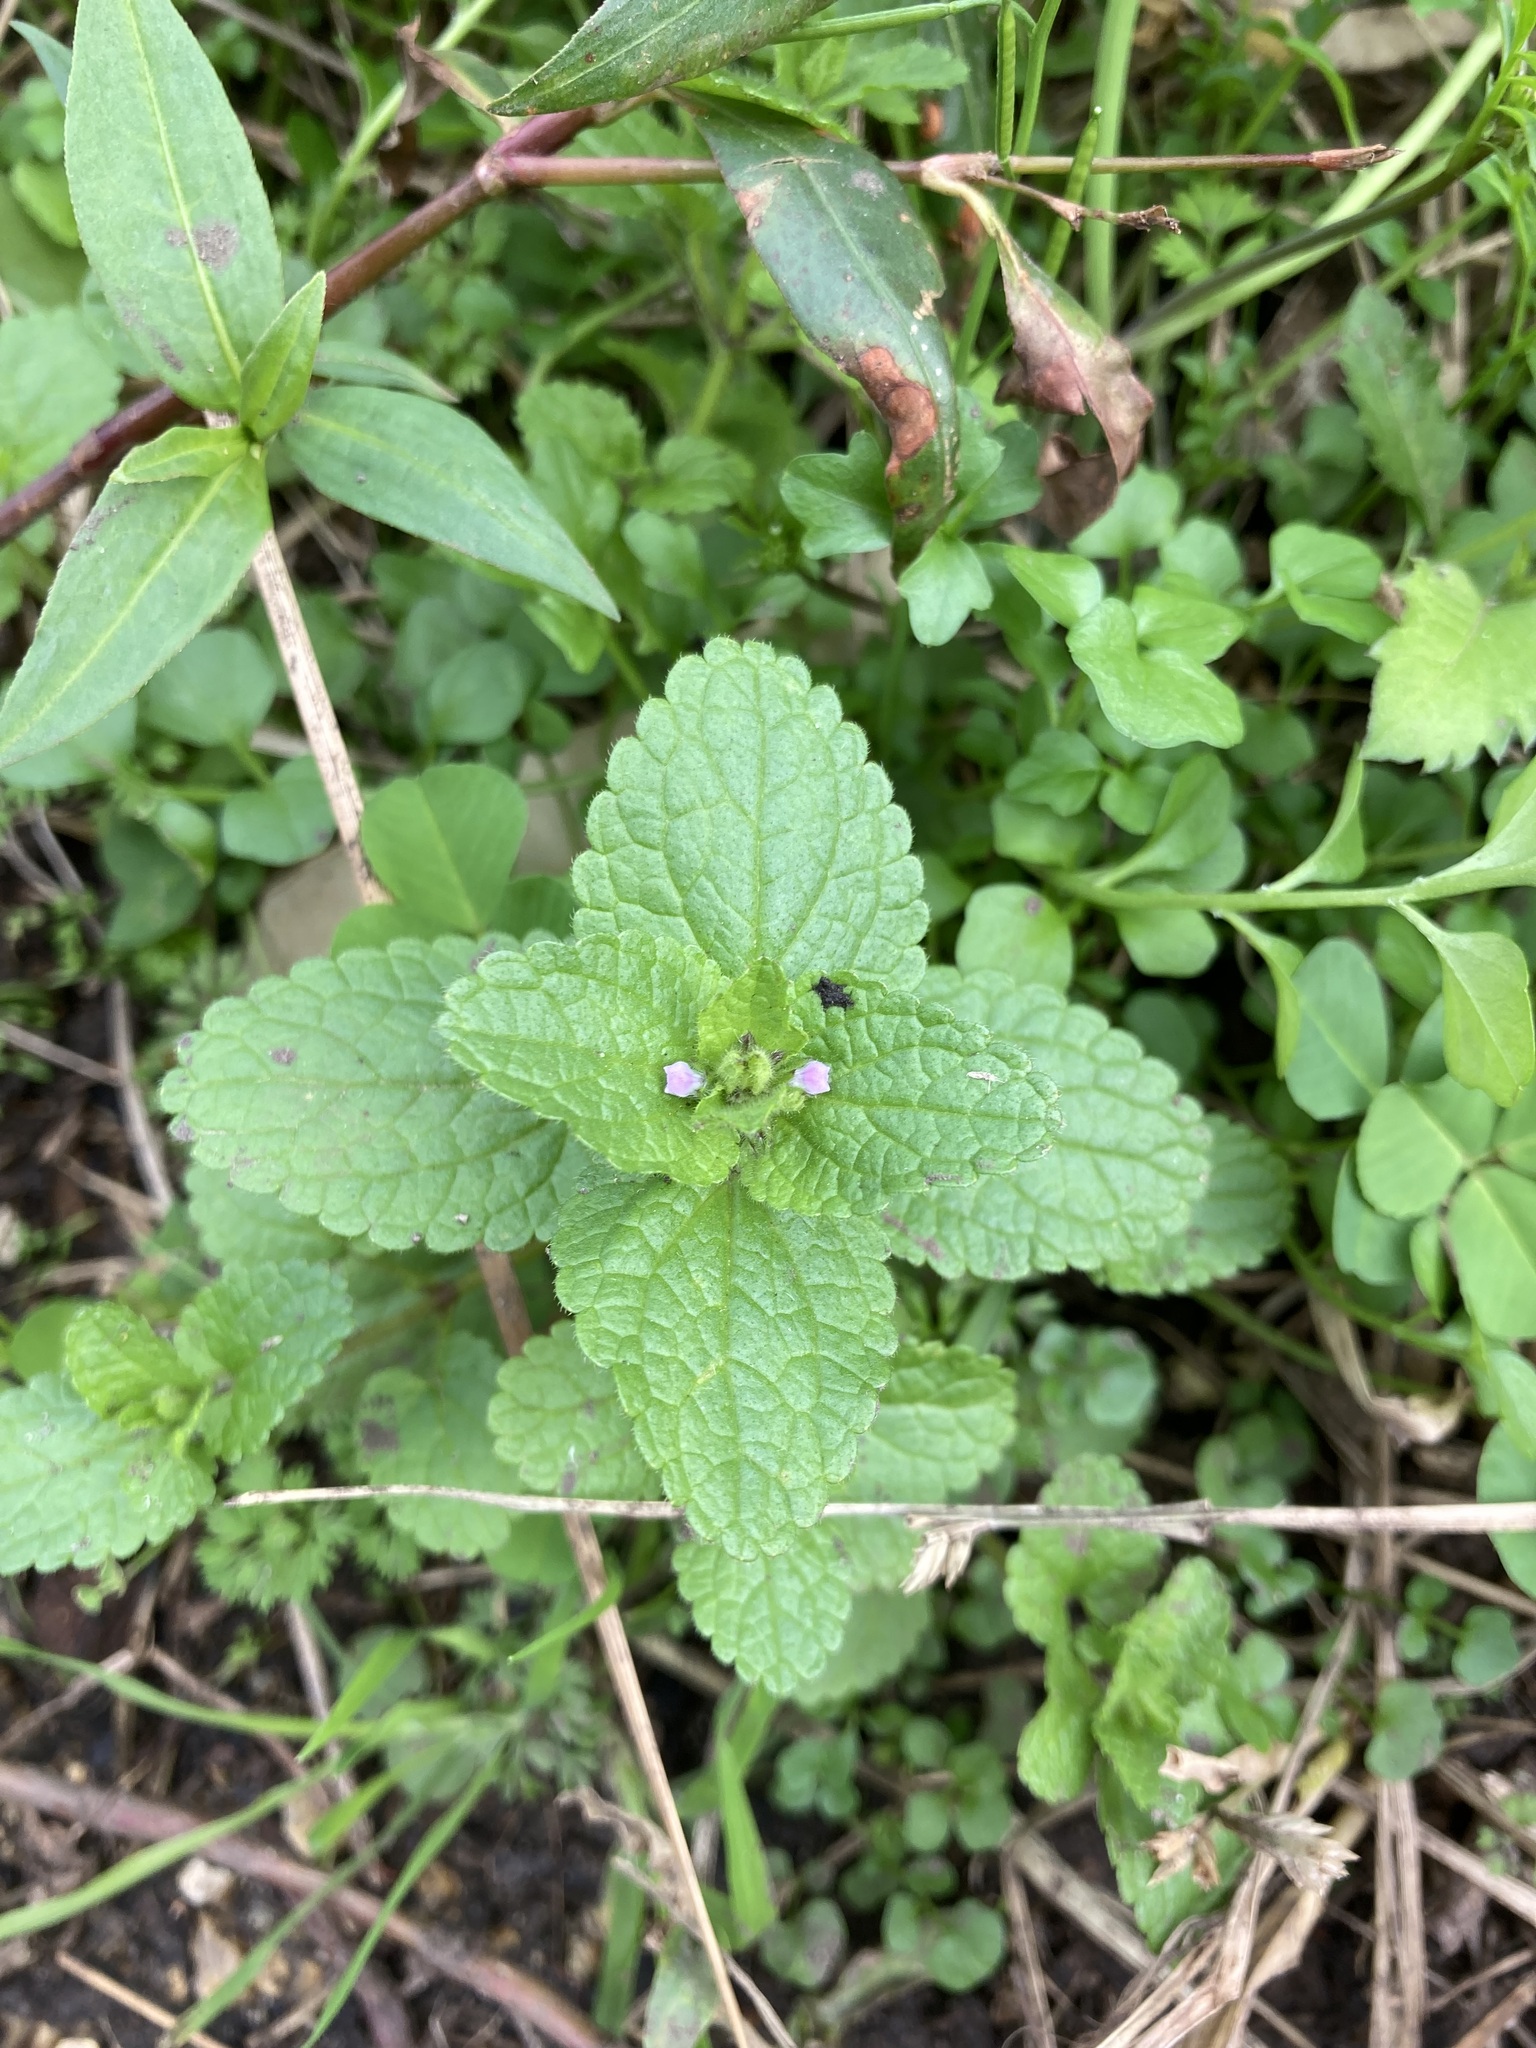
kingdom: Plantae
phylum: Tracheophyta
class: Magnoliopsida
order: Lamiales
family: Lamiaceae
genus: Stachys
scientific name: Stachys arvensis
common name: Field woundwort
